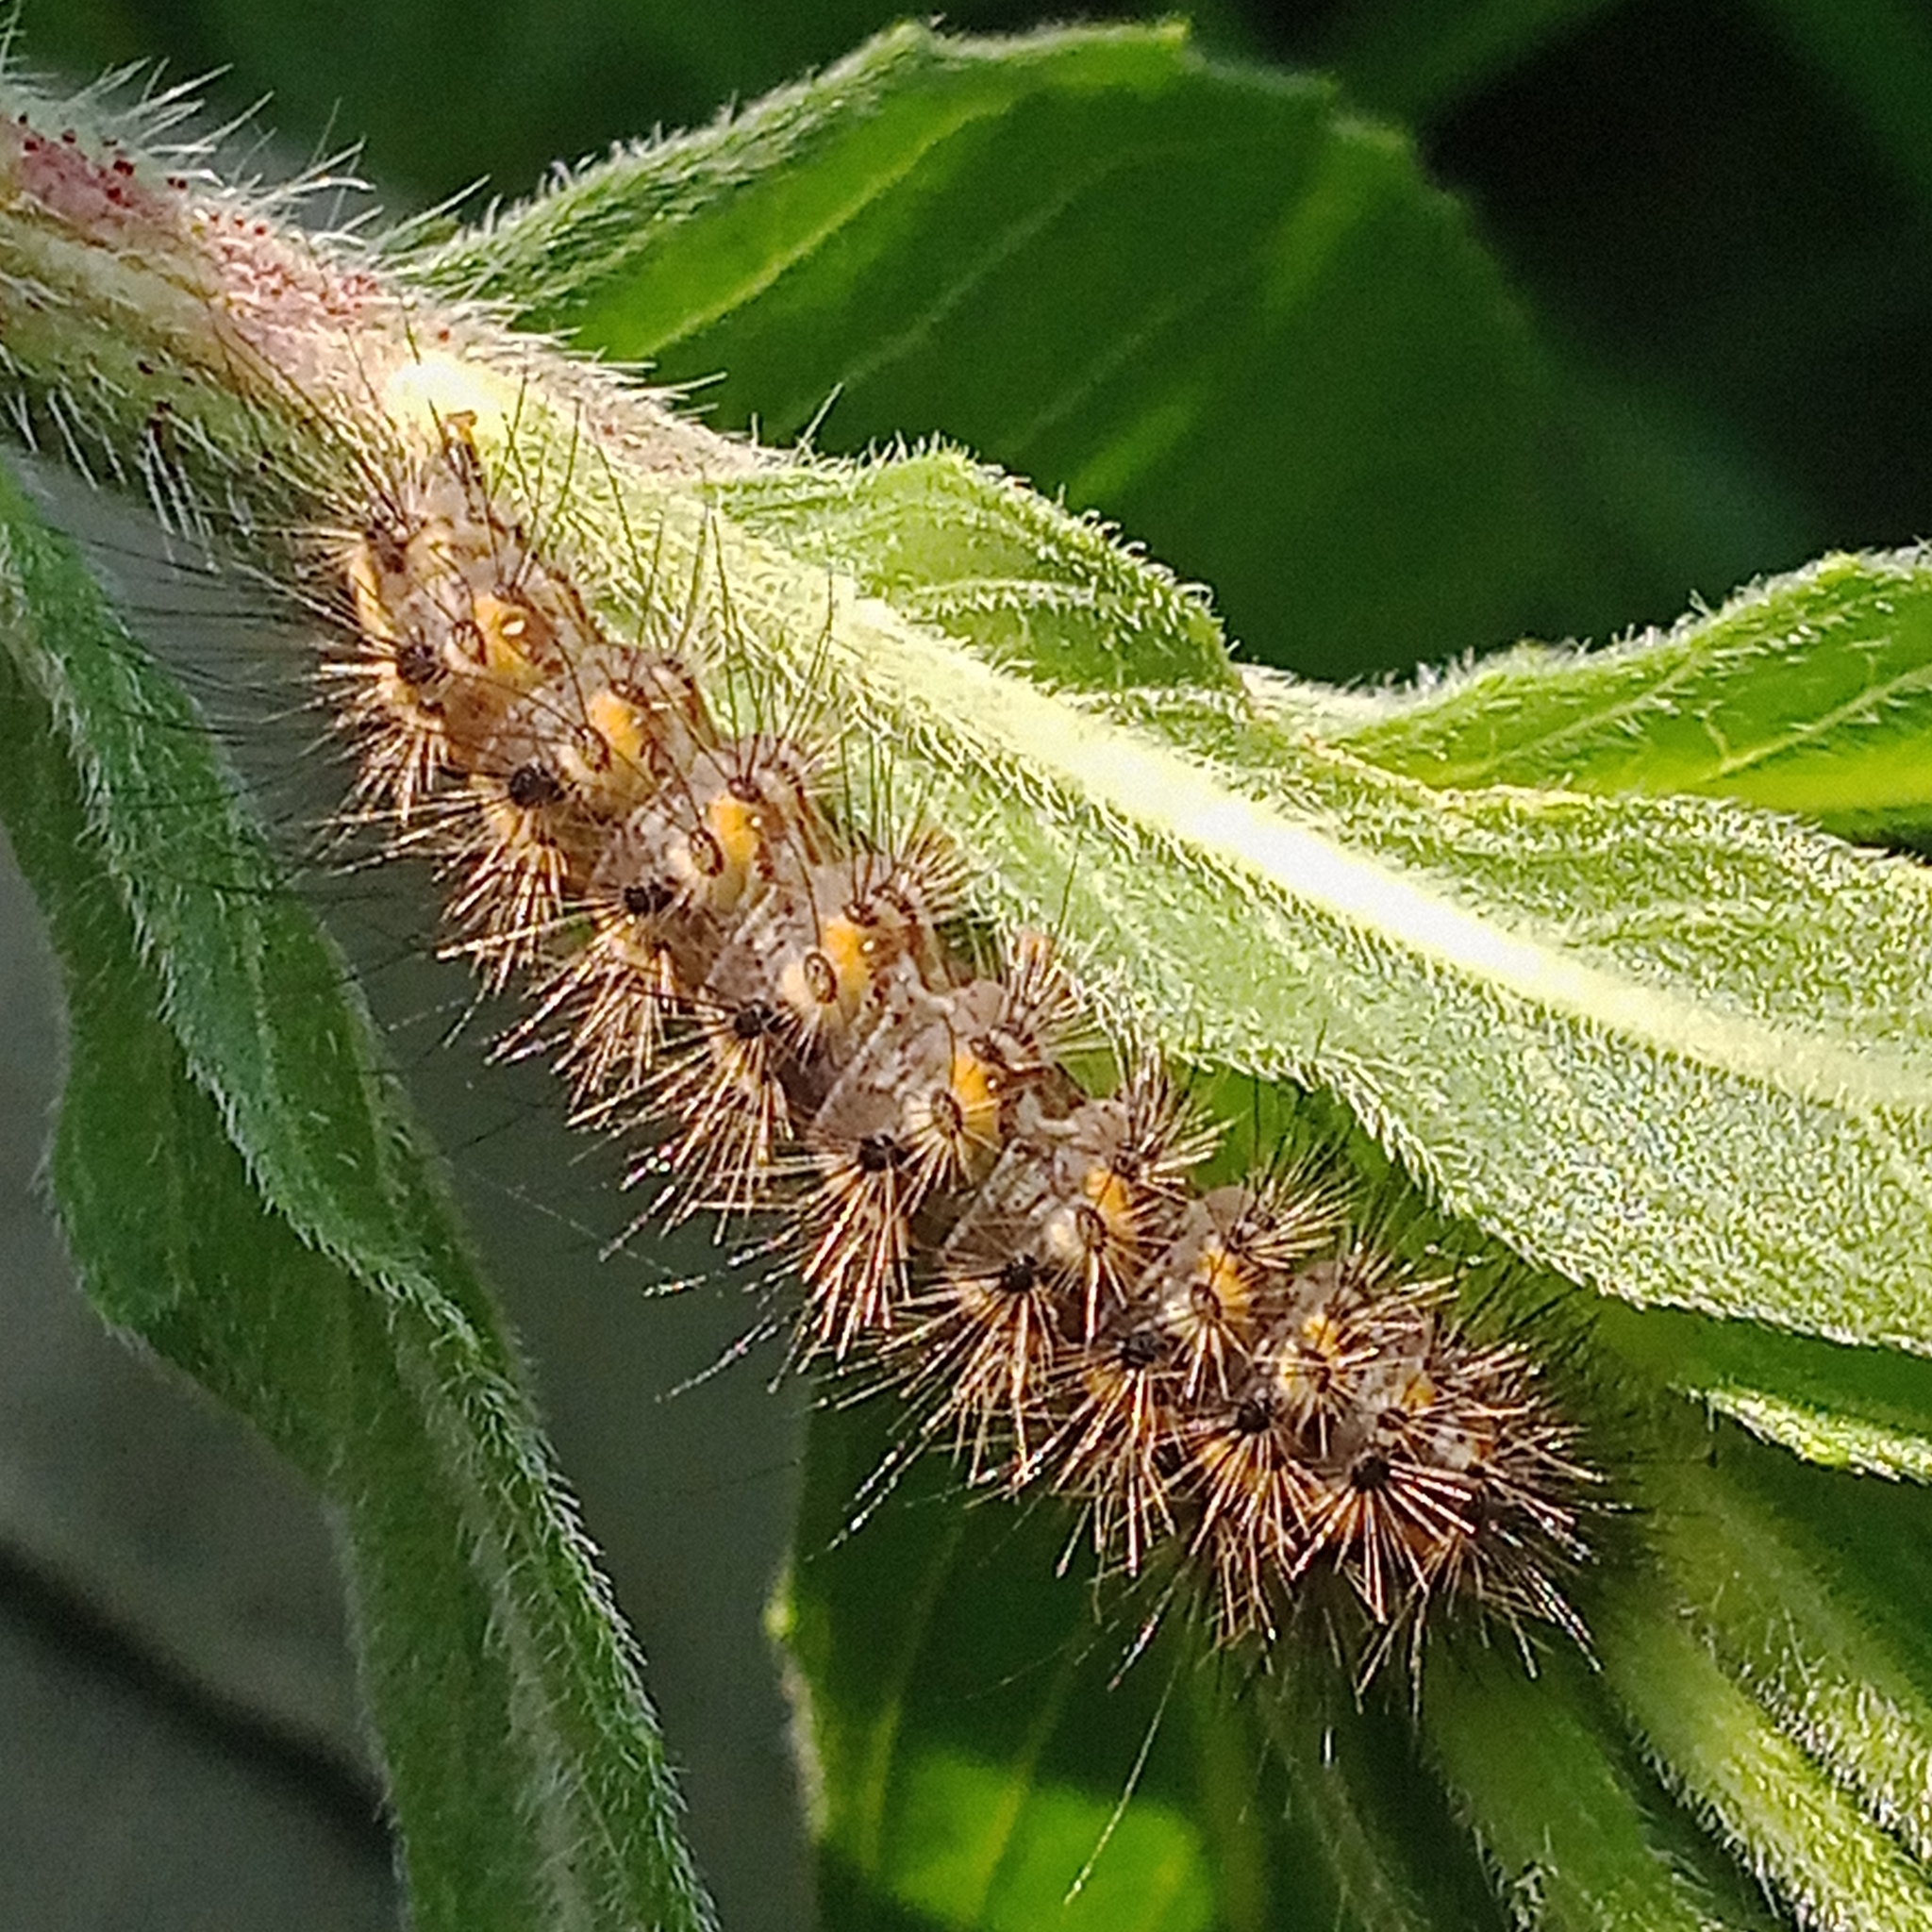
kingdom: Animalia
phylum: Arthropoda
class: Insecta
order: Lepidoptera
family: Erebidae
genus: Phragmatobia
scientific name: Phragmatobia fuliginosa
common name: Ruby tiger
